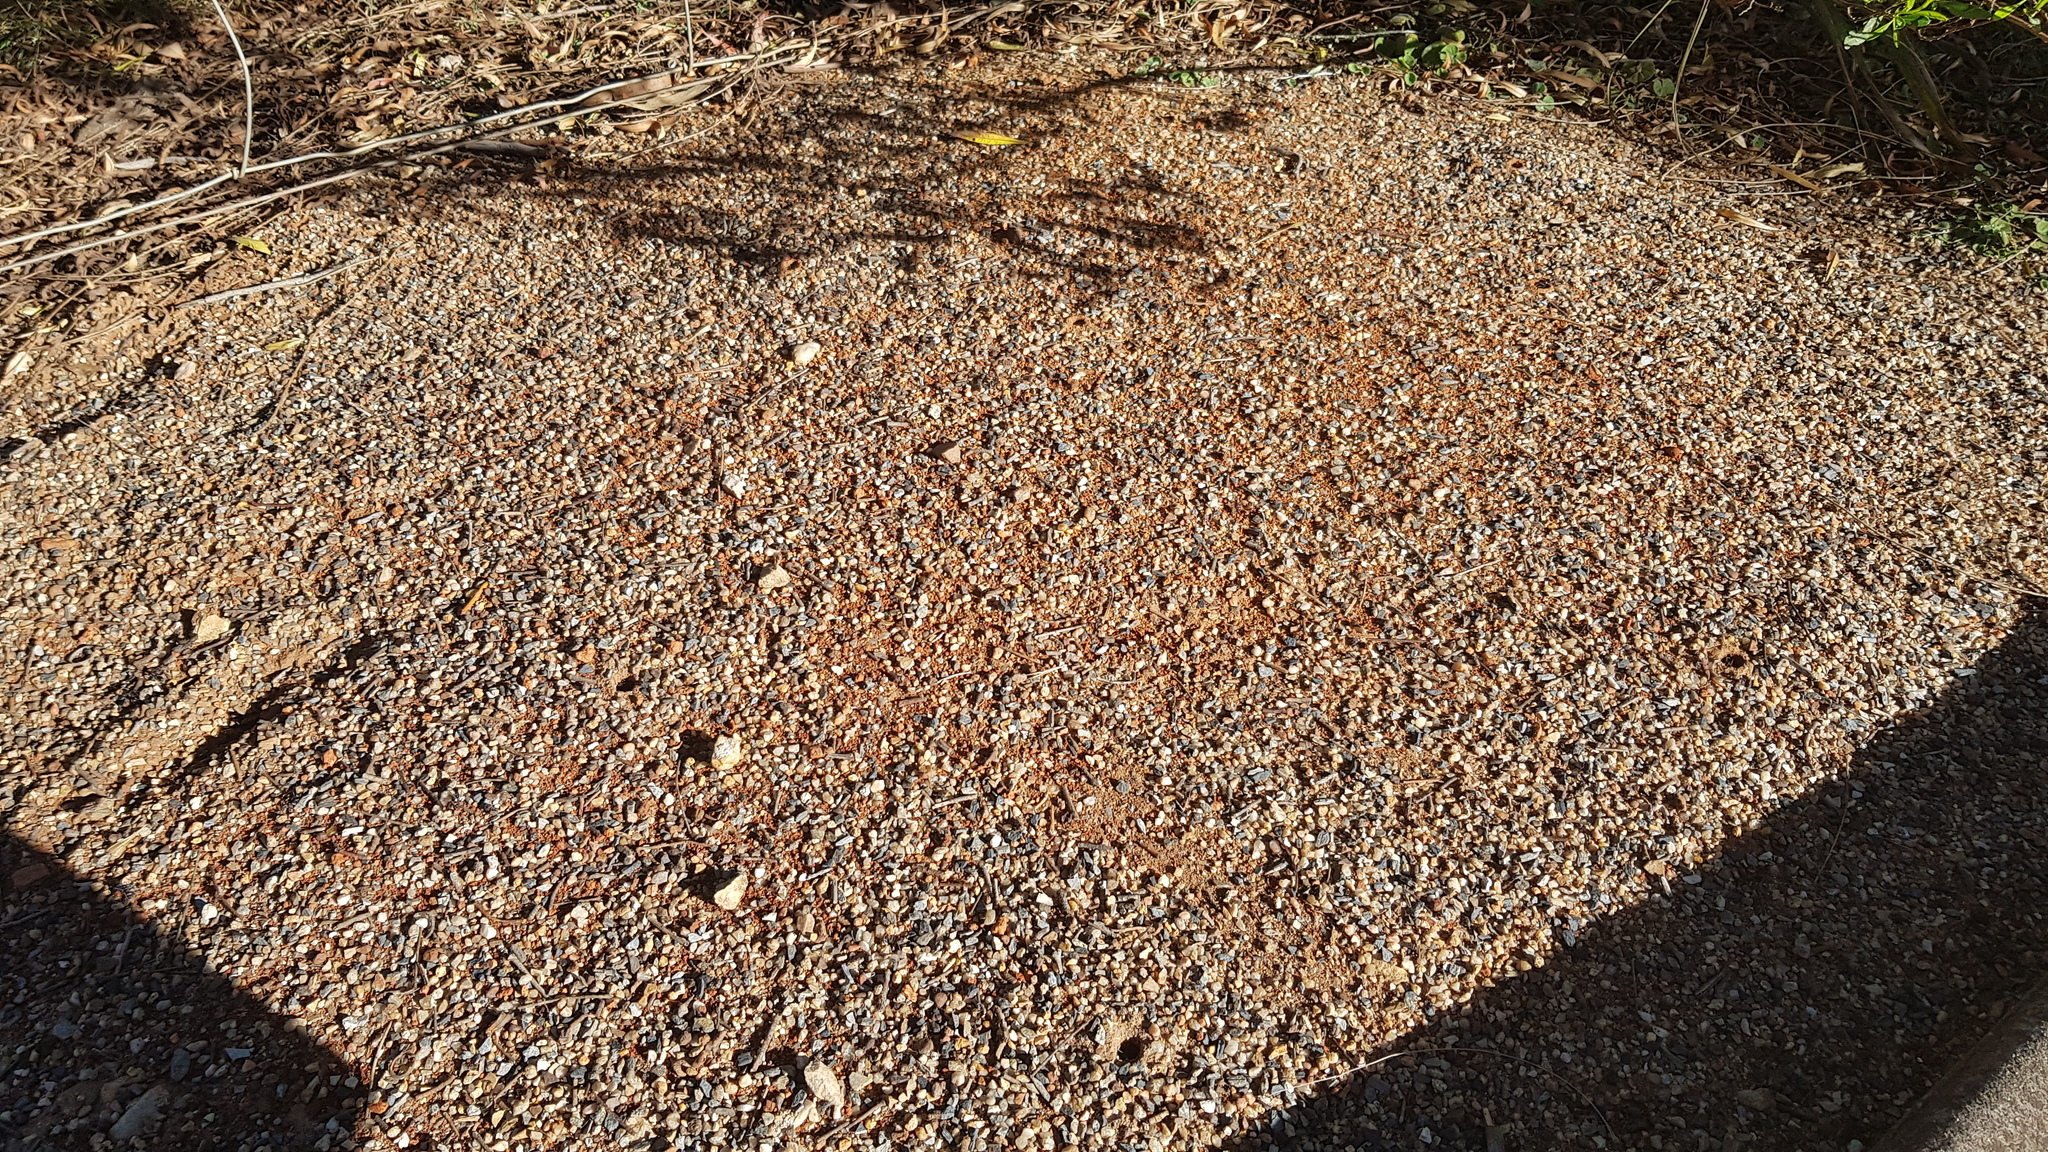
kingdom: Animalia
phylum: Arthropoda
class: Insecta
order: Hymenoptera
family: Formicidae
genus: Iridomyrmex
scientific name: Iridomyrmex purpureus
